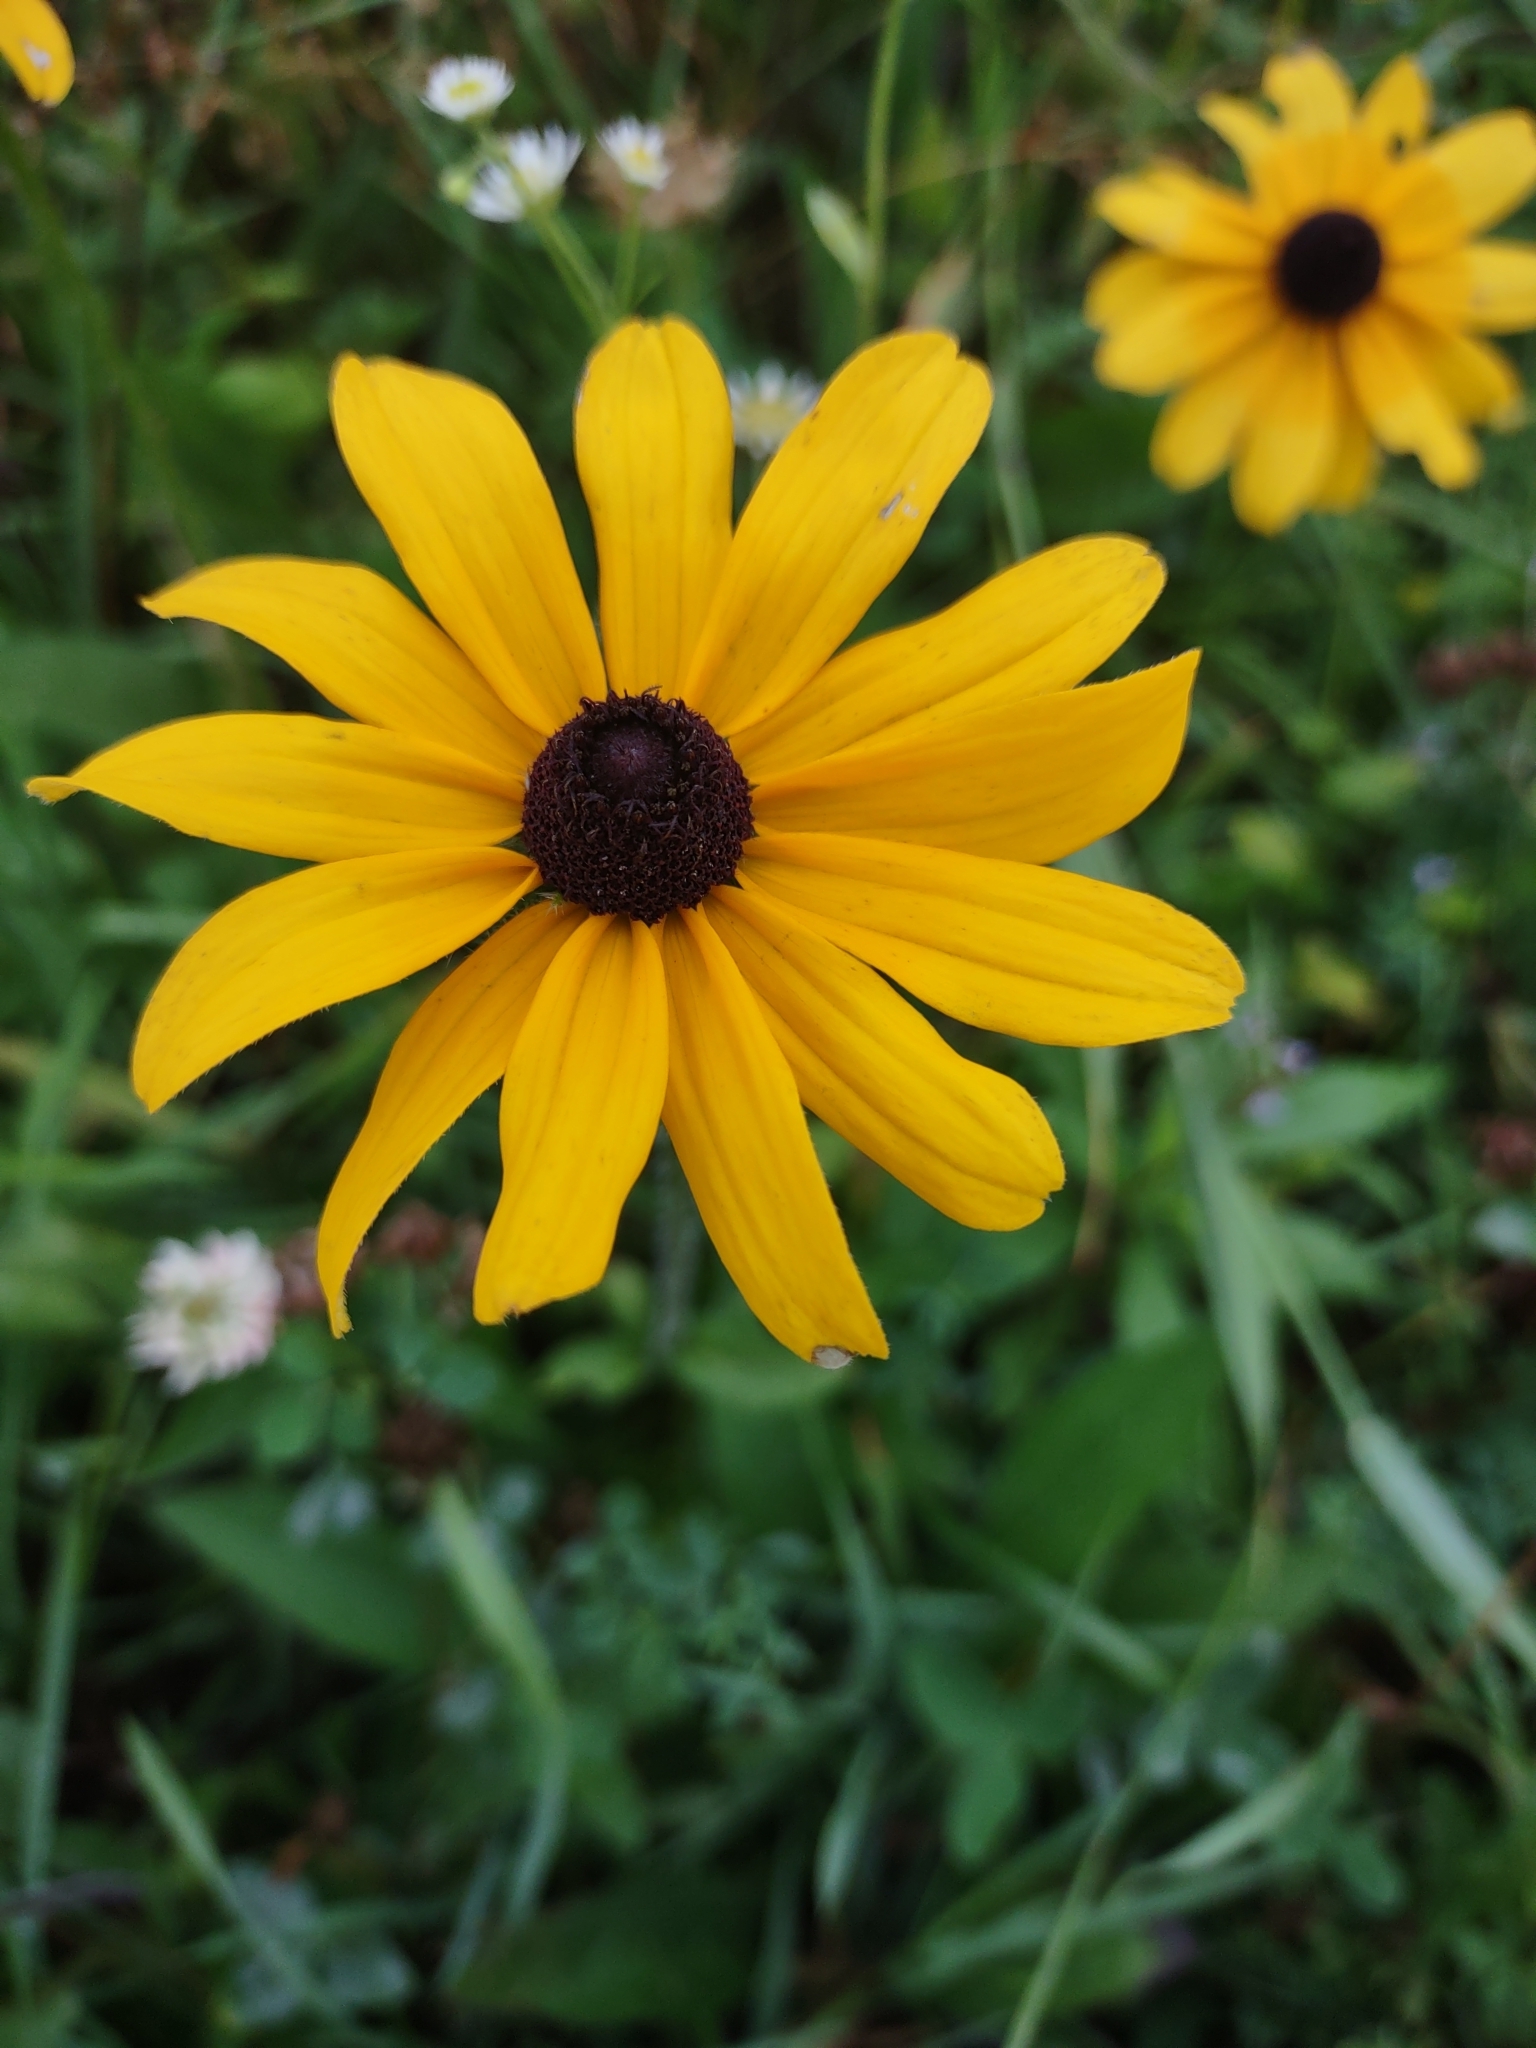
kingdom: Plantae
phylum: Tracheophyta
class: Magnoliopsida
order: Asterales
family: Asteraceae
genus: Rudbeckia
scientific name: Rudbeckia hirta
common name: Black-eyed-susan
